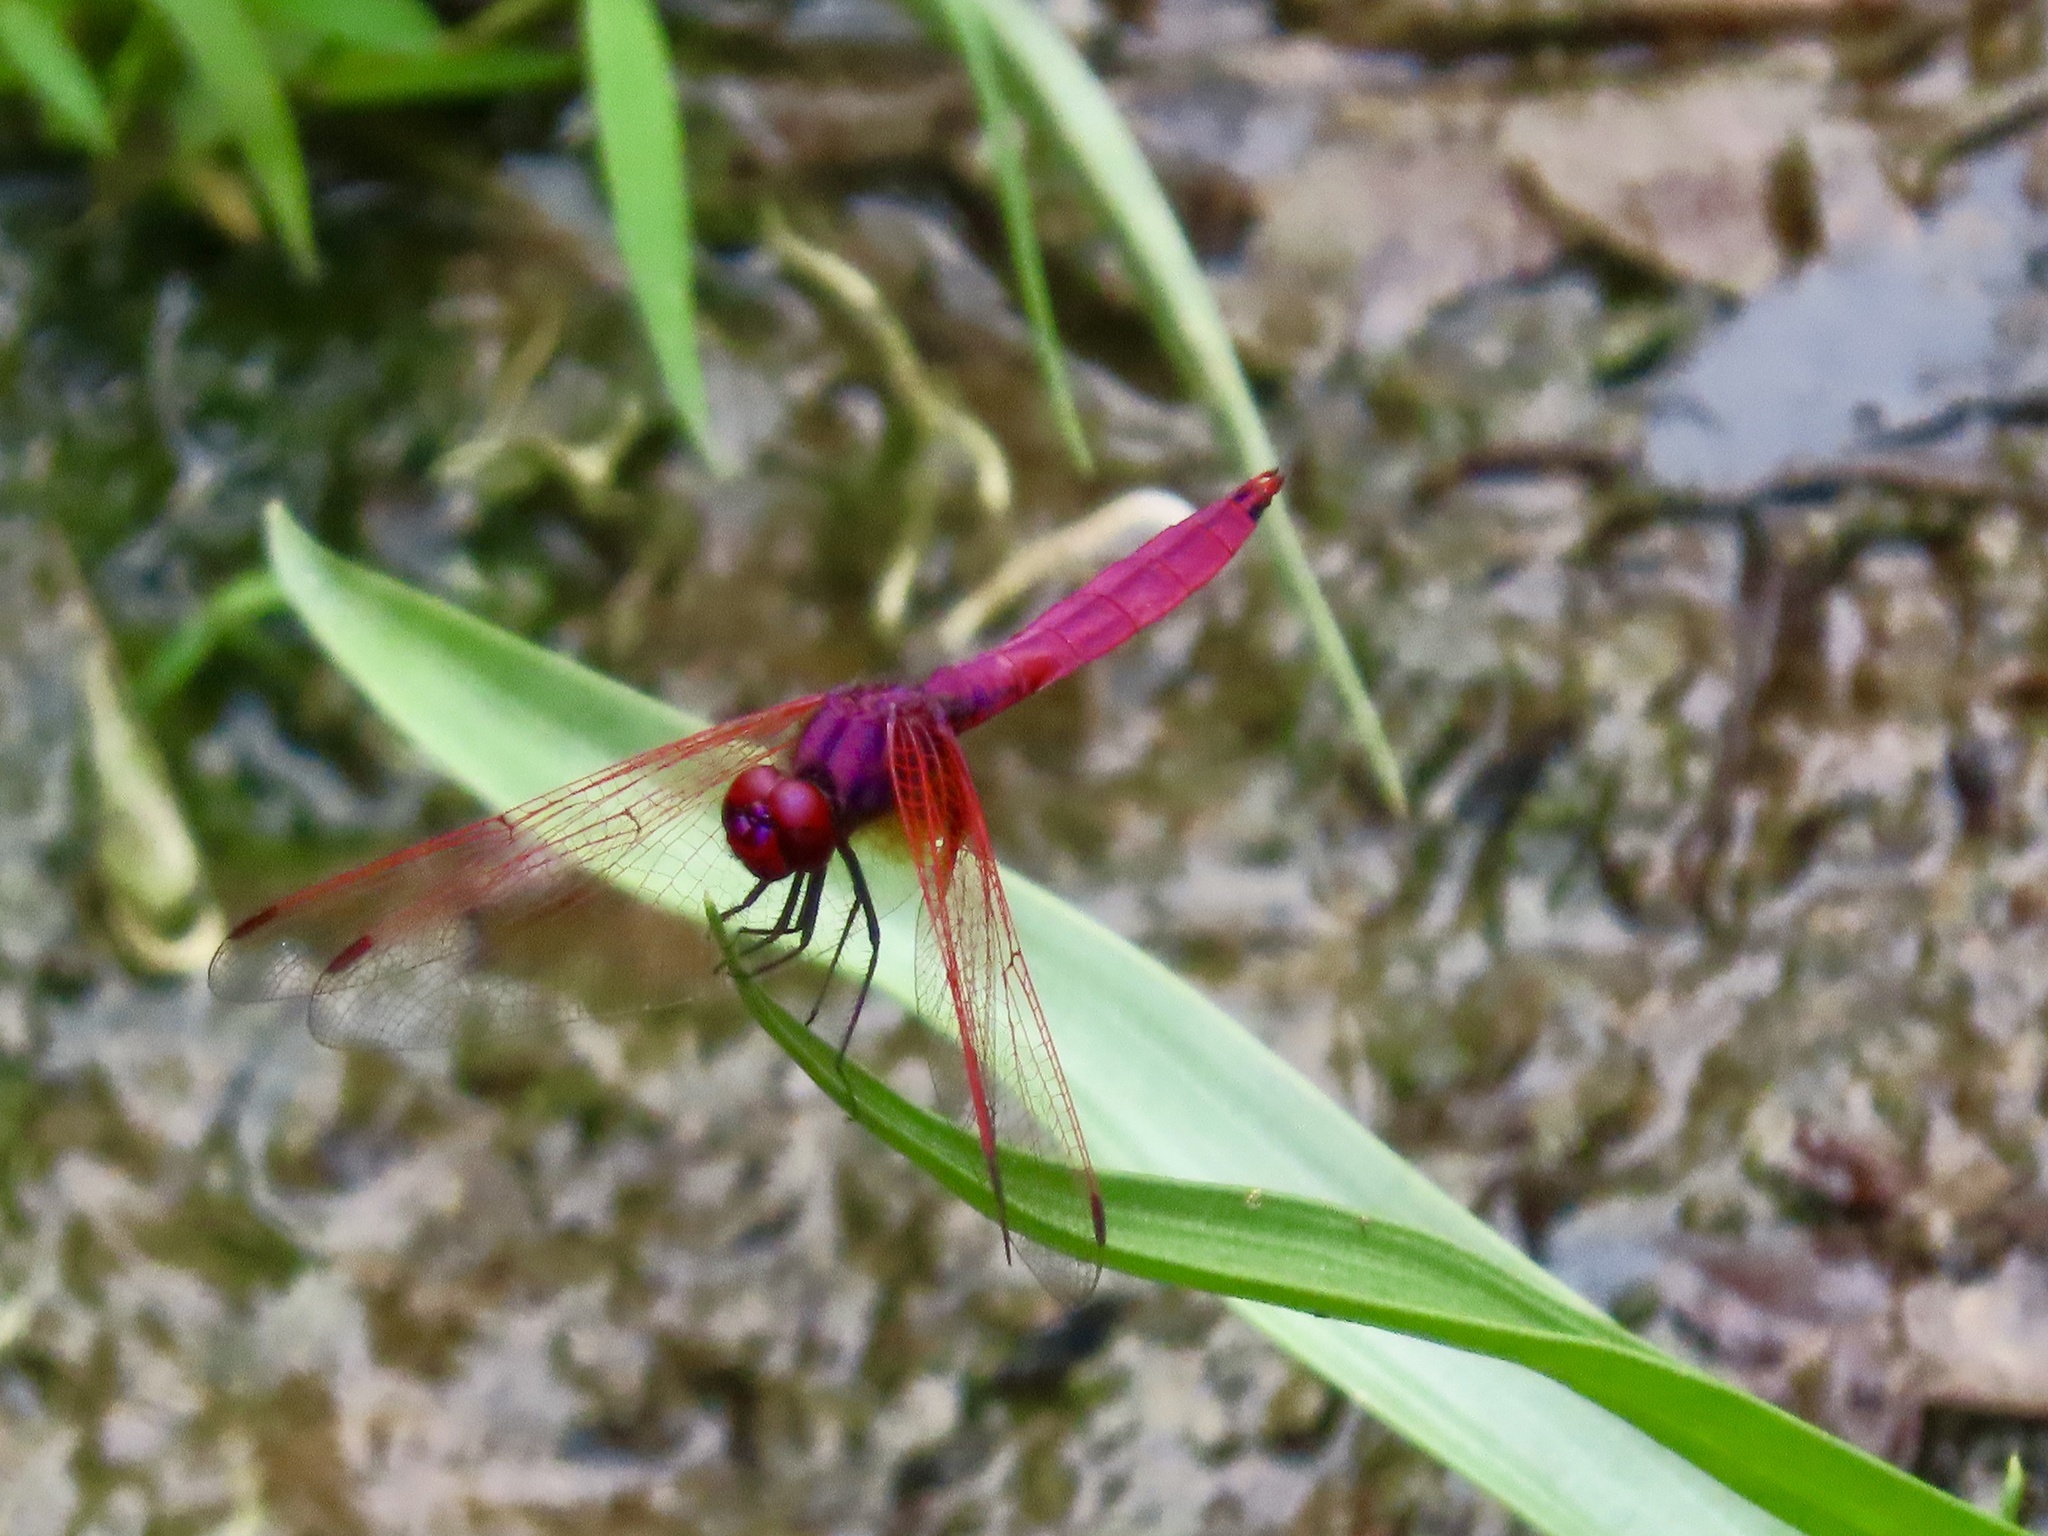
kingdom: Animalia
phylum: Arthropoda
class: Insecta
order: Odonata
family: Libellulidae
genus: Trithemis
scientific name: Trithemis aurora
